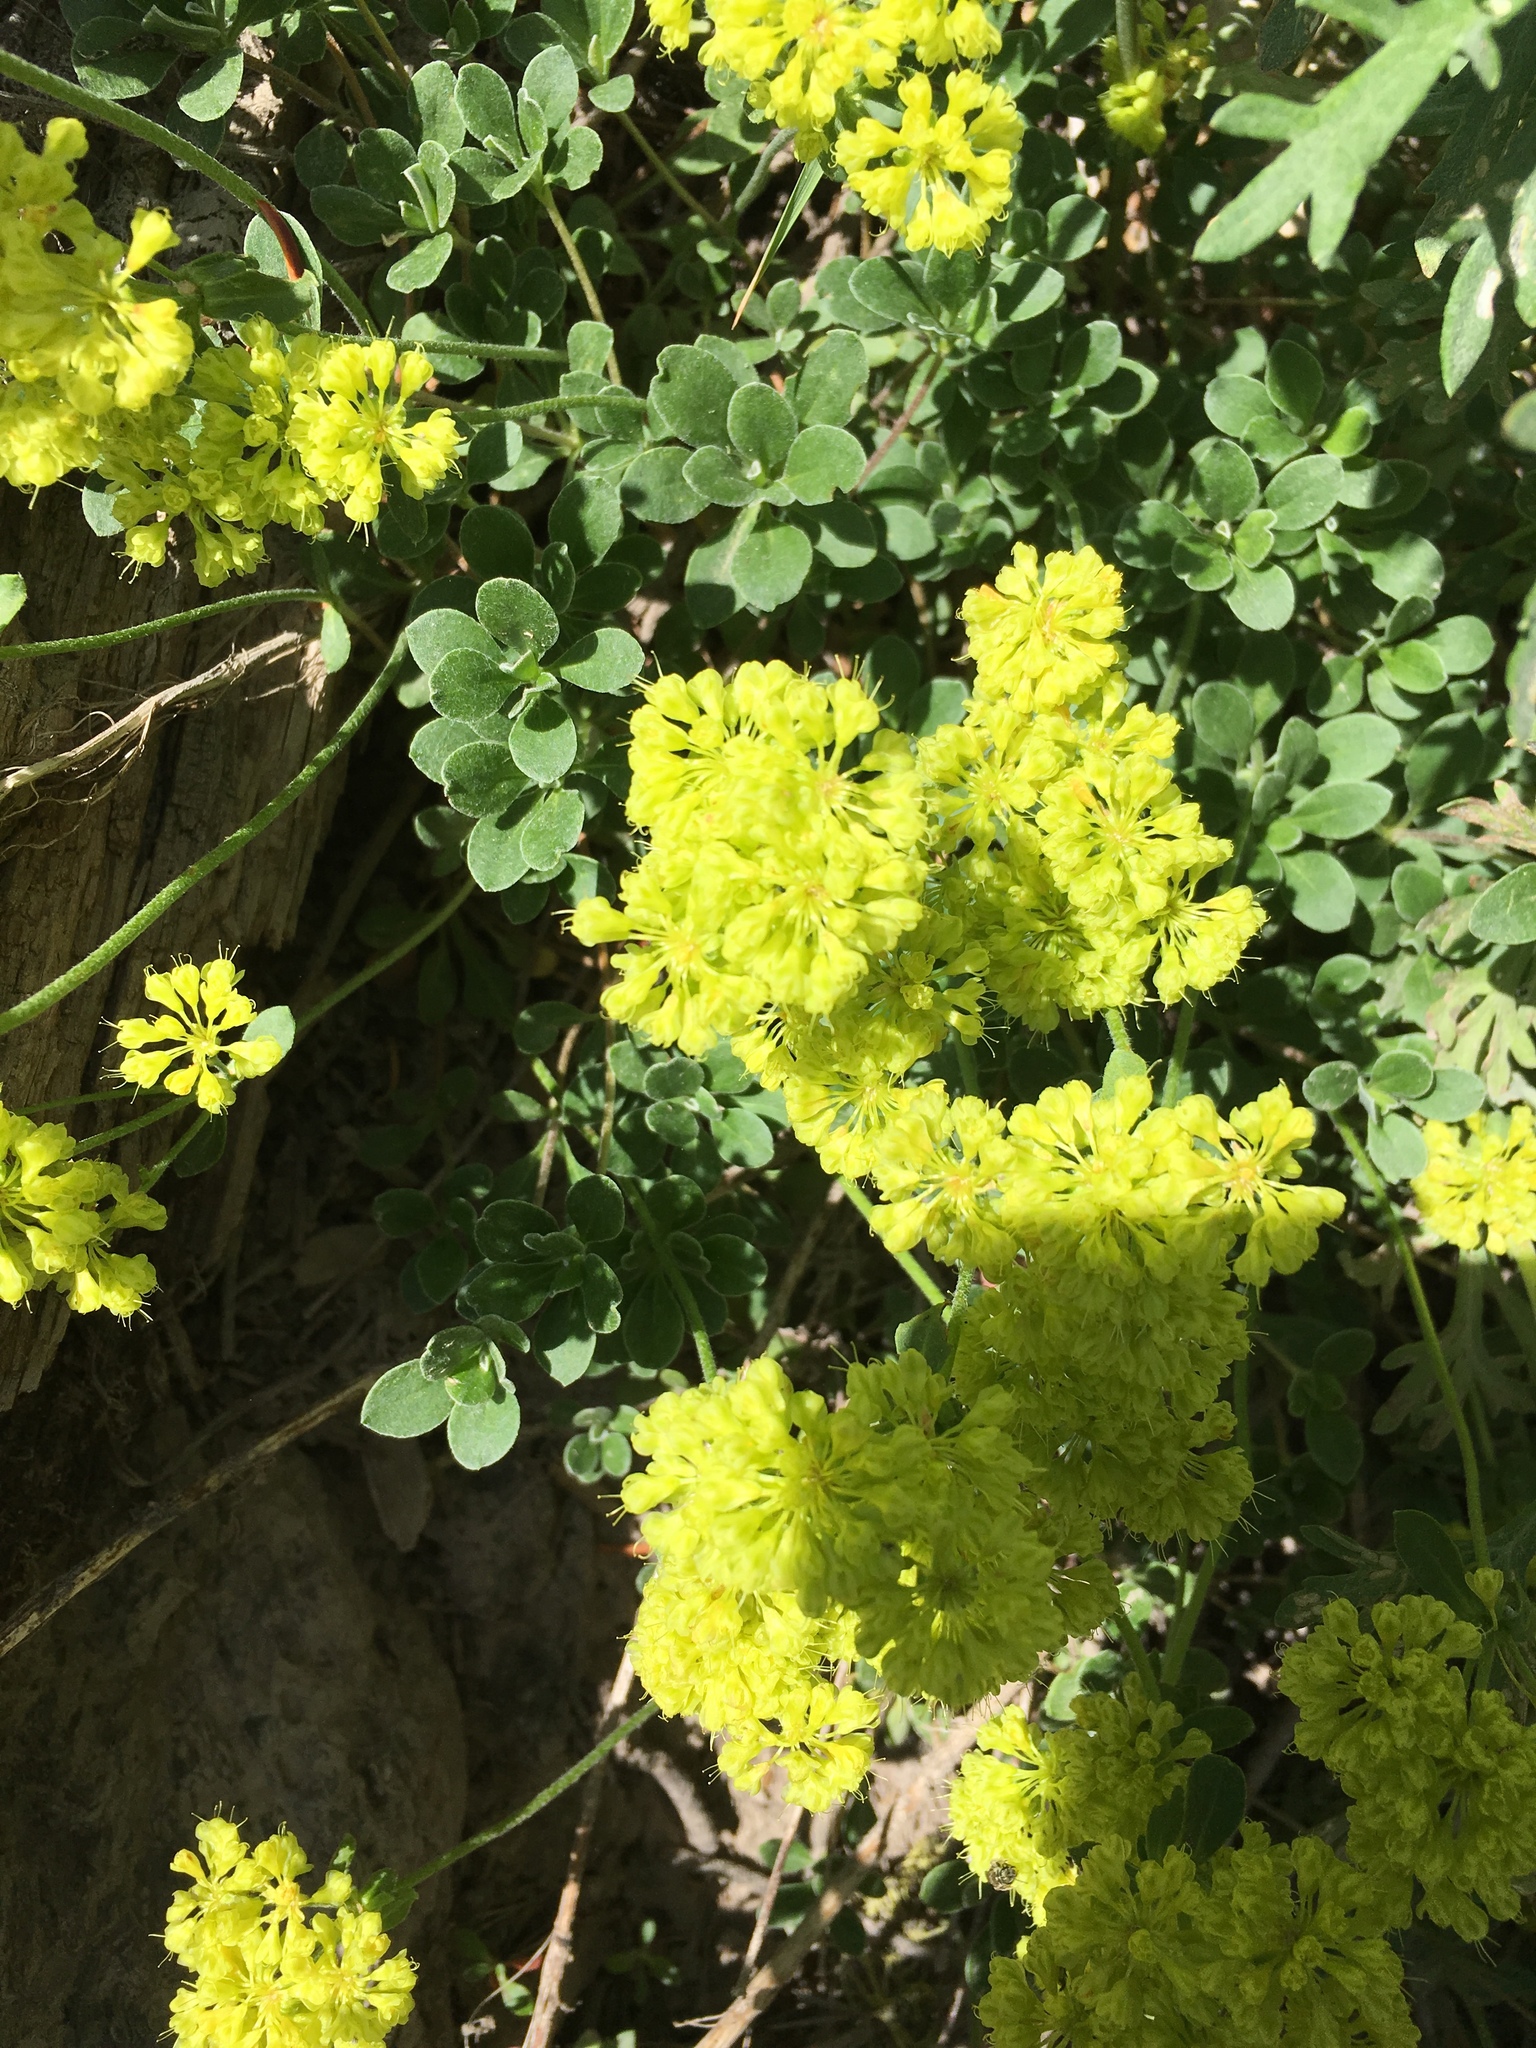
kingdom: Plantae
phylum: Tracheophyta
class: Magnoliopsida
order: Caryophyllales
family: Polygonaceae
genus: Eriogonum
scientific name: Eriogonum umbellatum
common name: Sulfur-buckwheat
